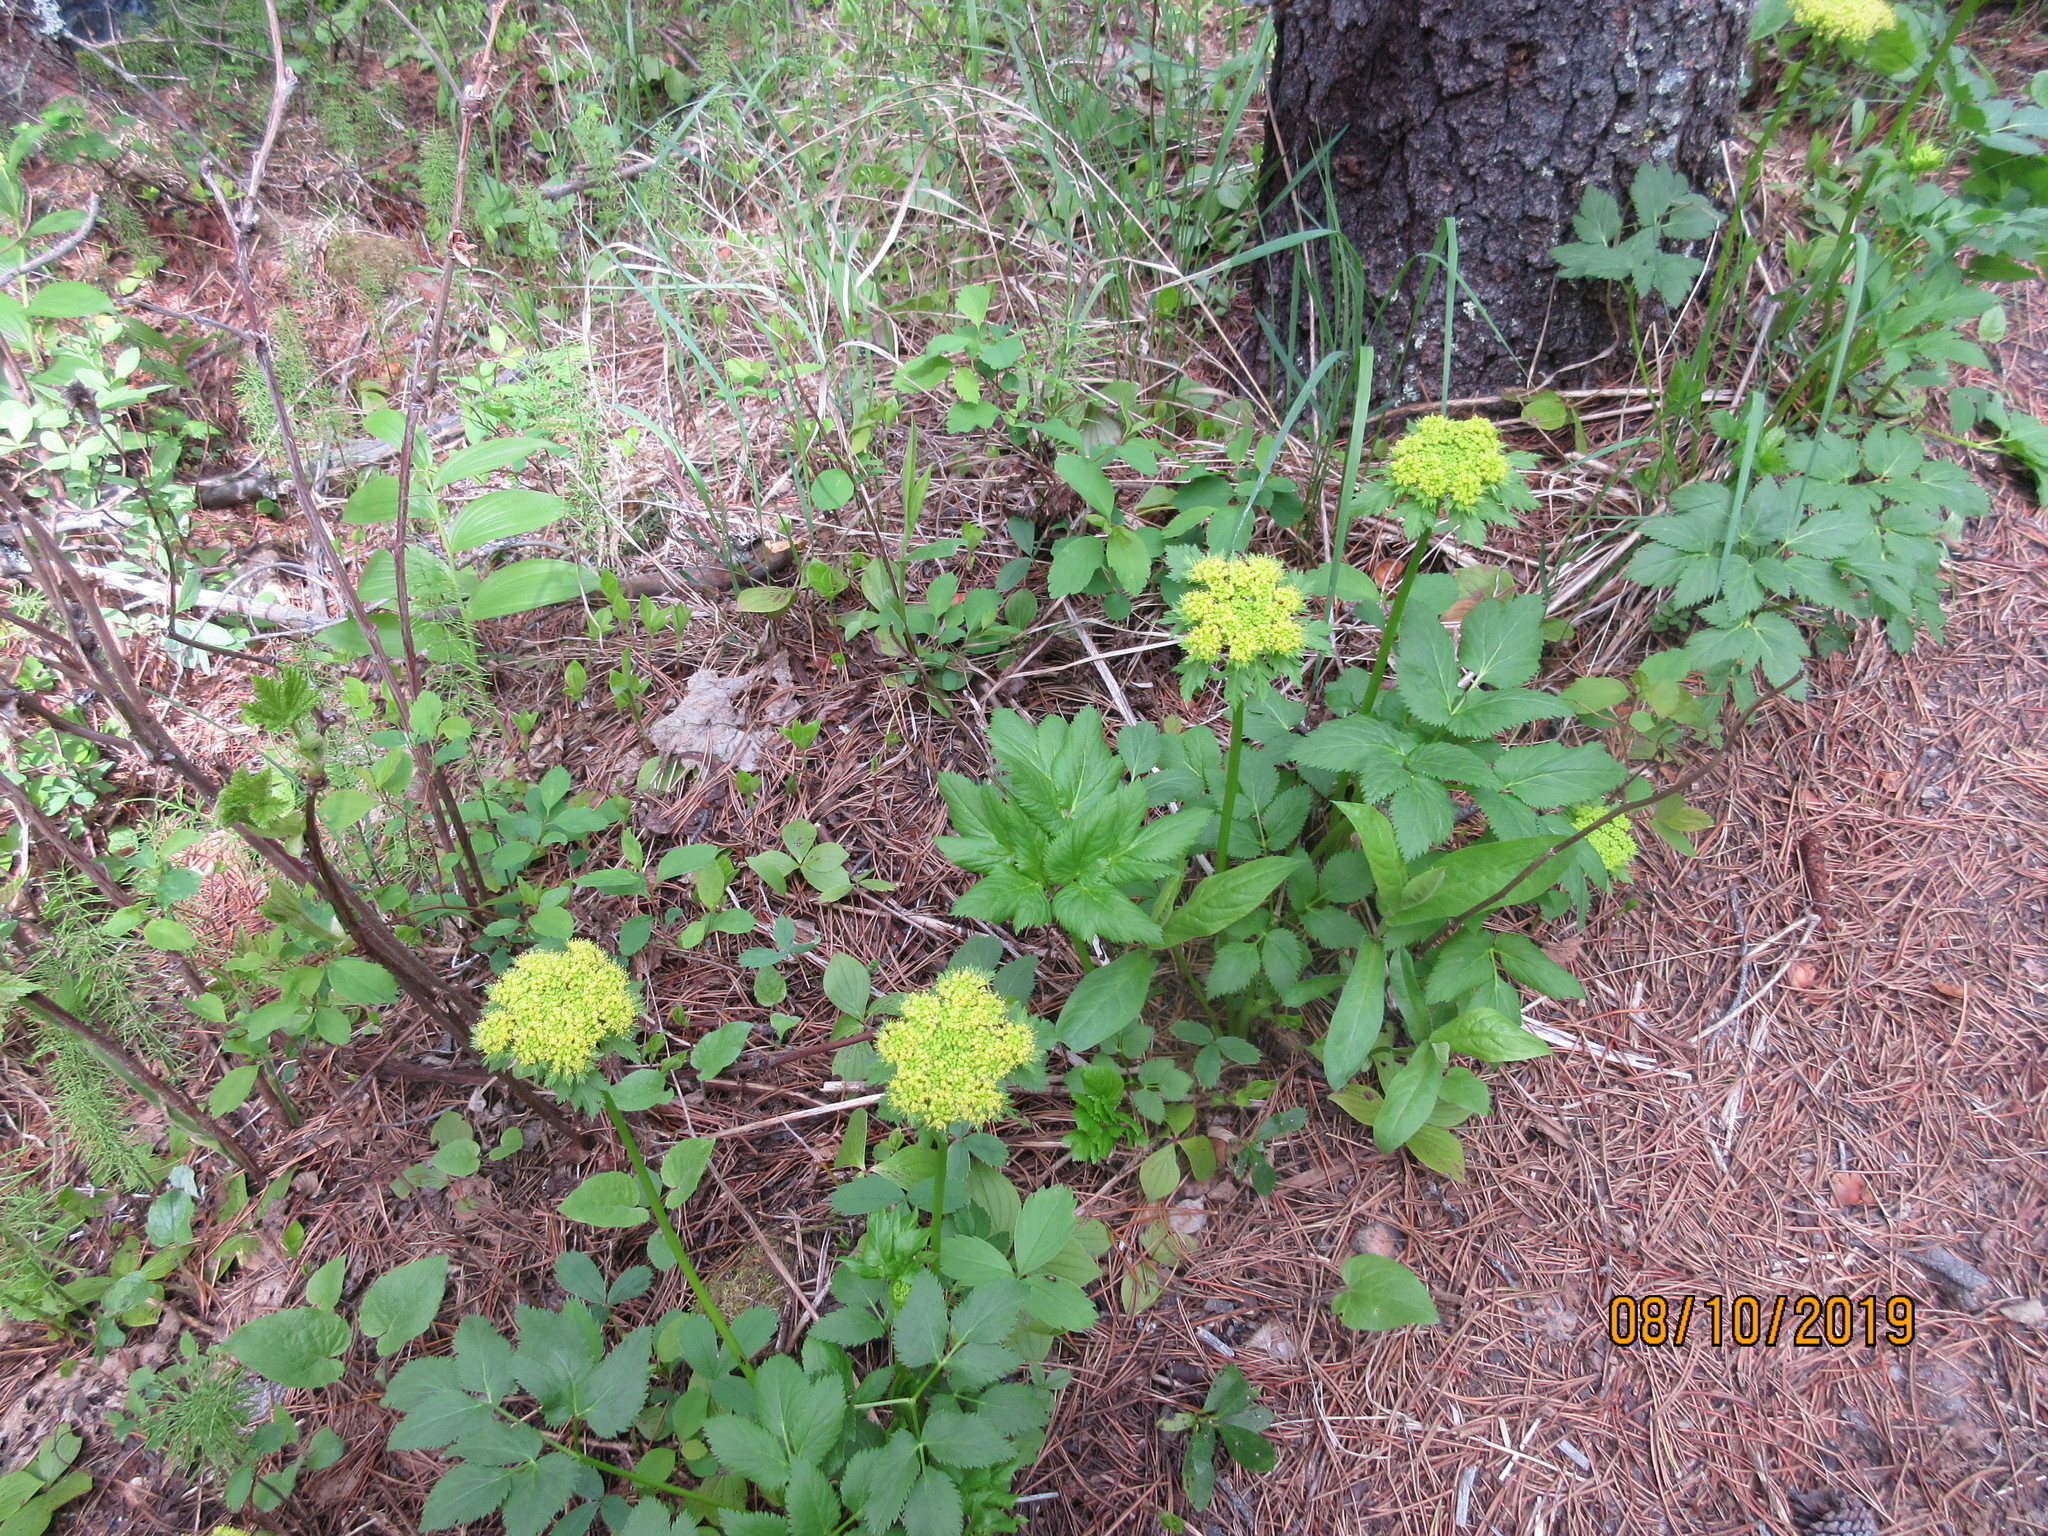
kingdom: Plantae
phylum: Tracheophyta
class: Magnoliopsida
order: Apiales
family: Apiaceae
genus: Angelica
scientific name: Angelica dawsonii
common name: Dawson's angelica
